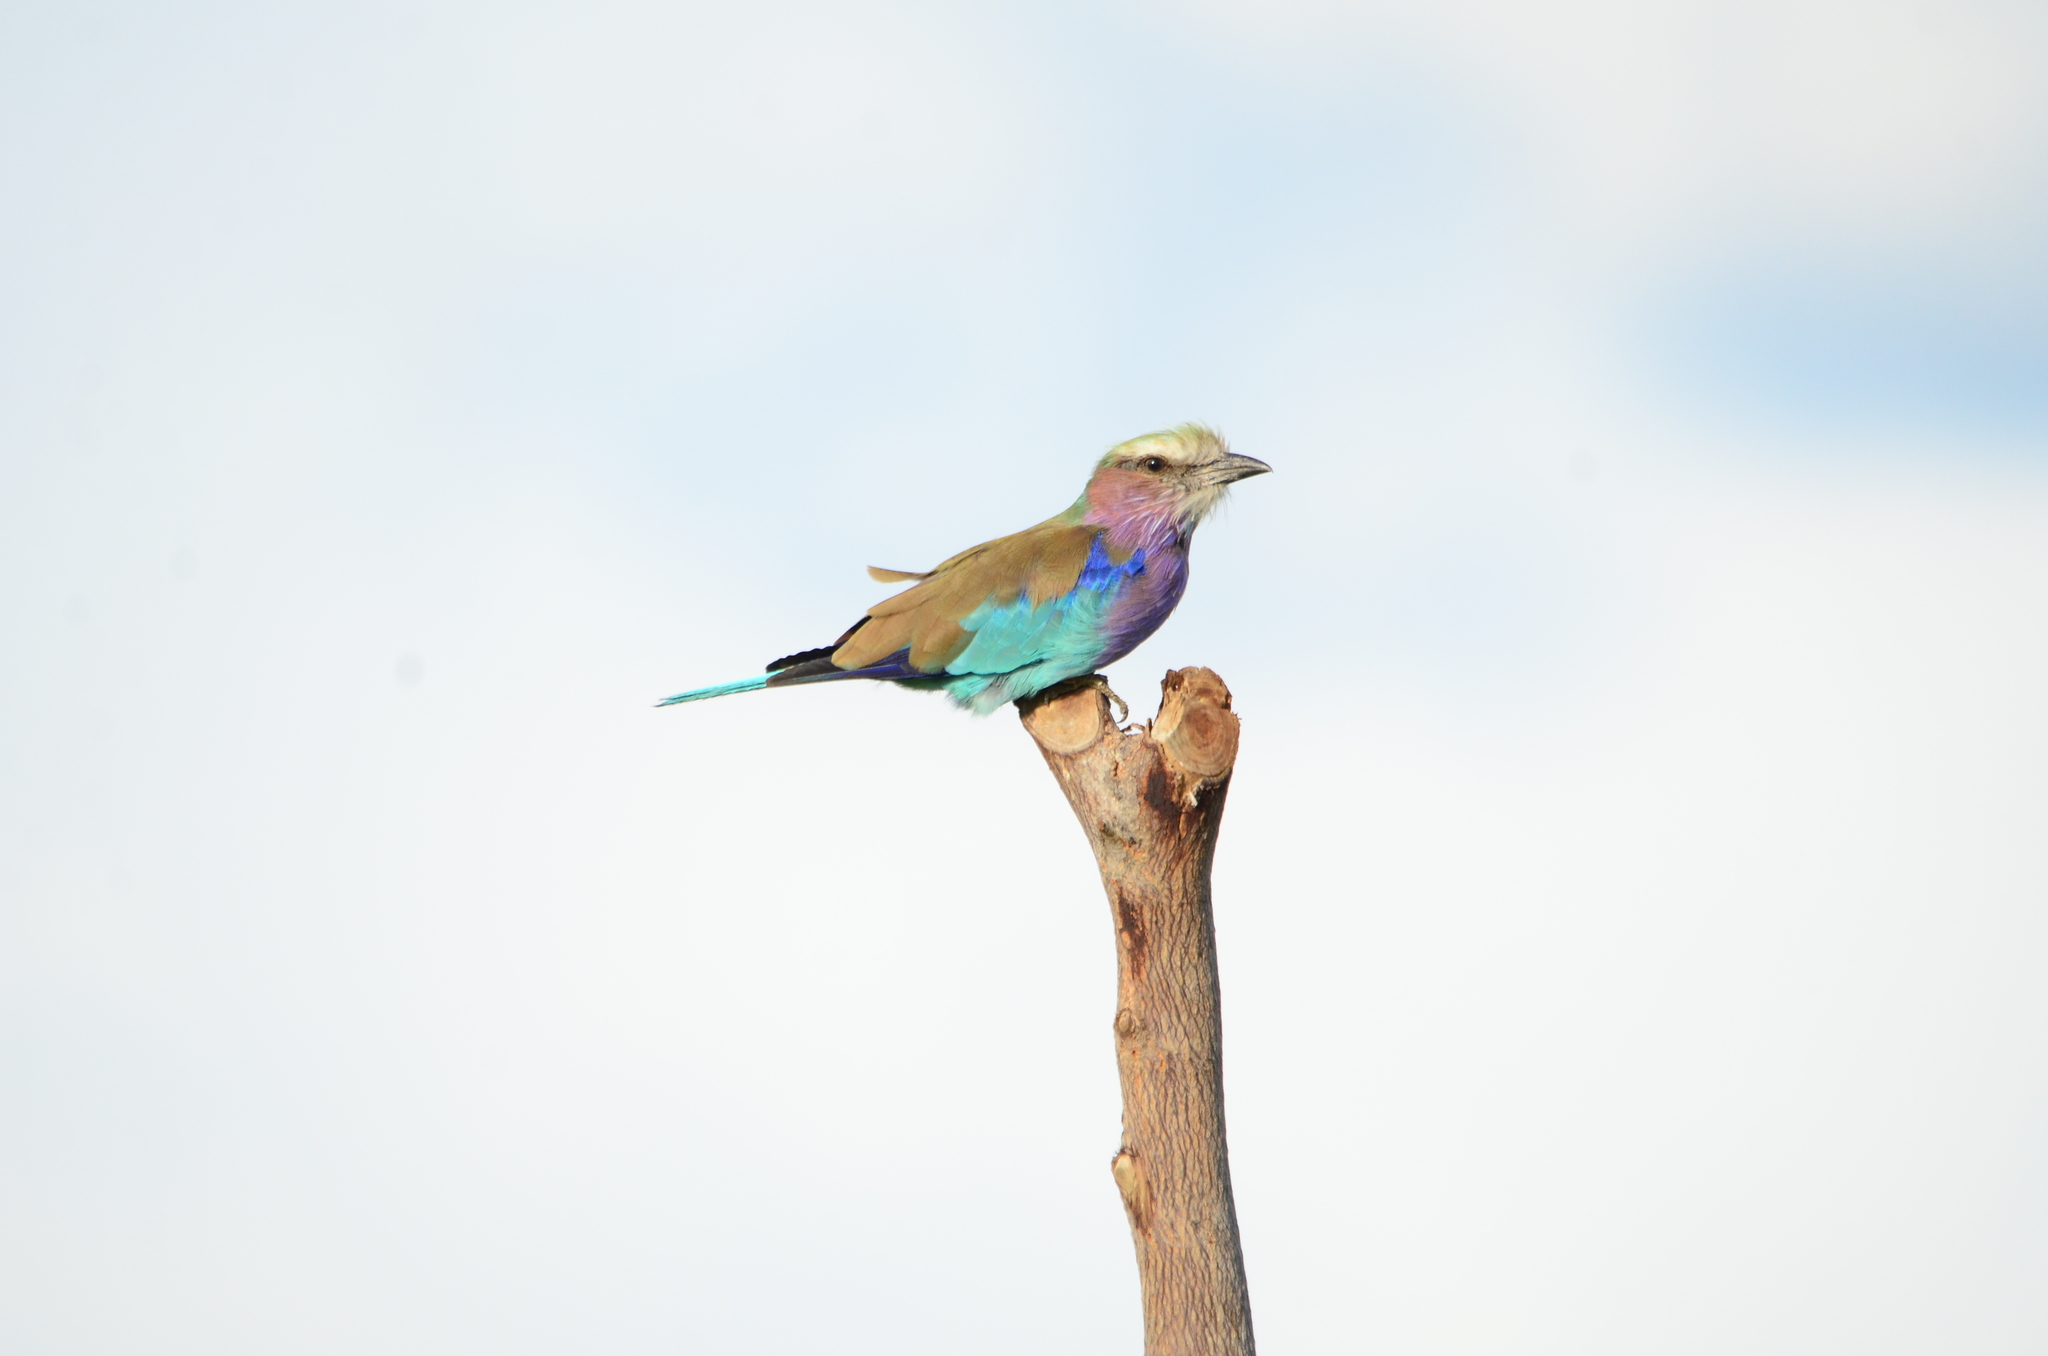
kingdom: Animalia
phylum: Chordata
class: Aves
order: Coraciiformes
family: Coraciidae
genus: Coracias
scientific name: Coracias caudatus
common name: Lilac-breasted roller
